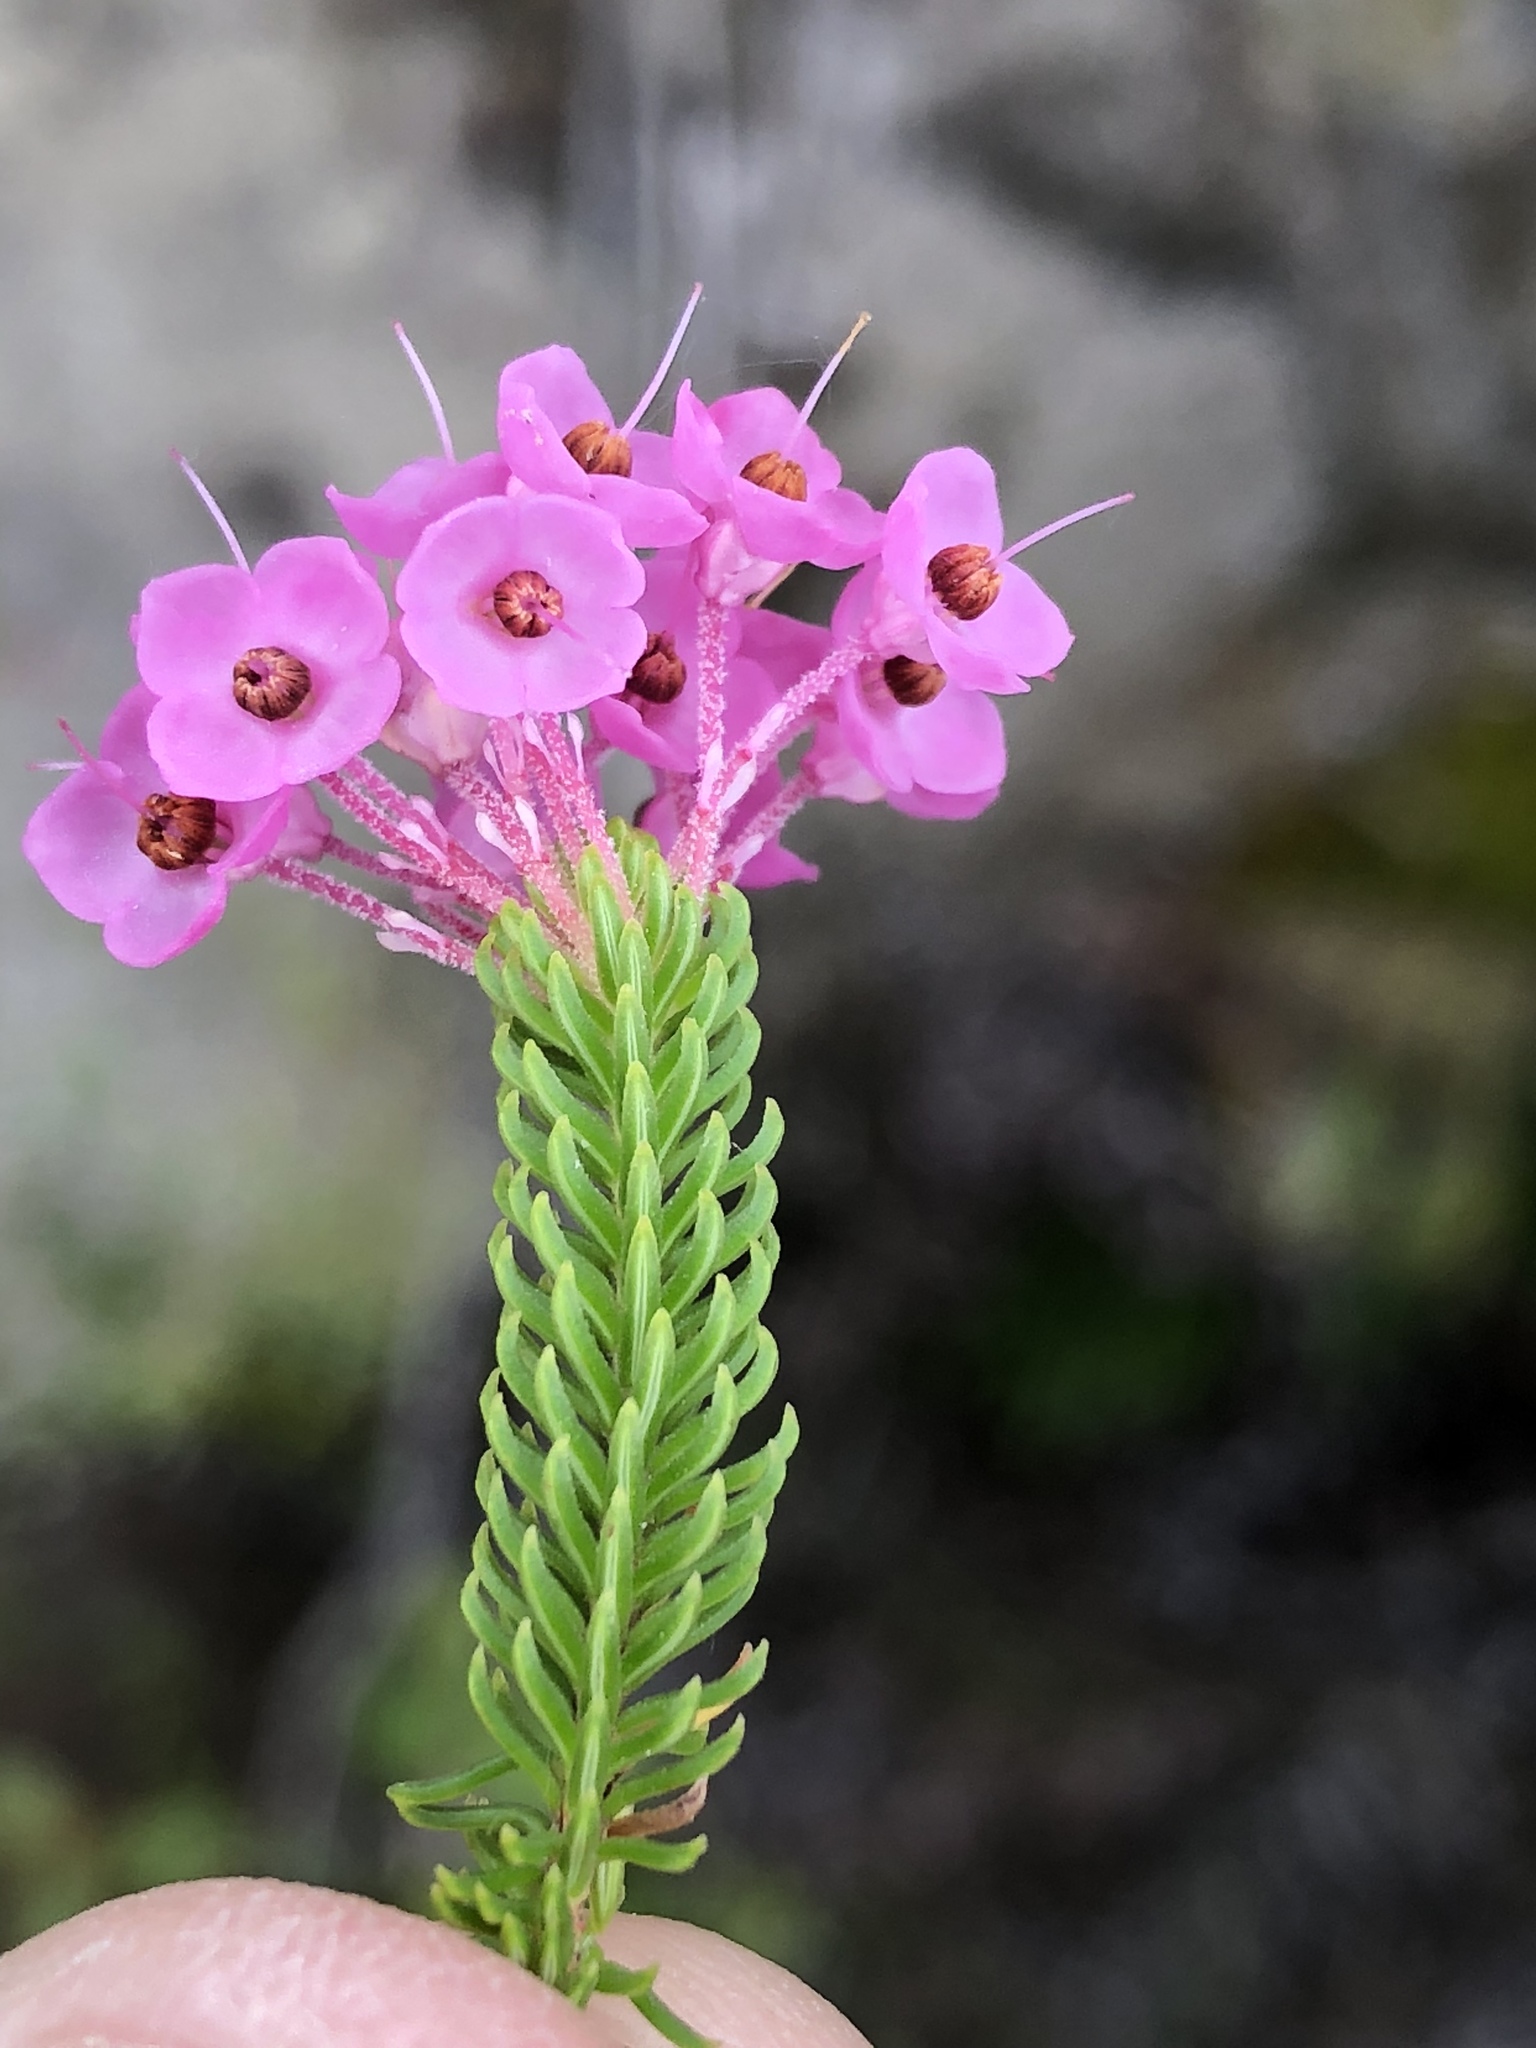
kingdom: Plantae
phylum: Tracheophyta
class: Magnoliopsida
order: Ericales
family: Ericaceae
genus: Erica
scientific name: Erica cubica
